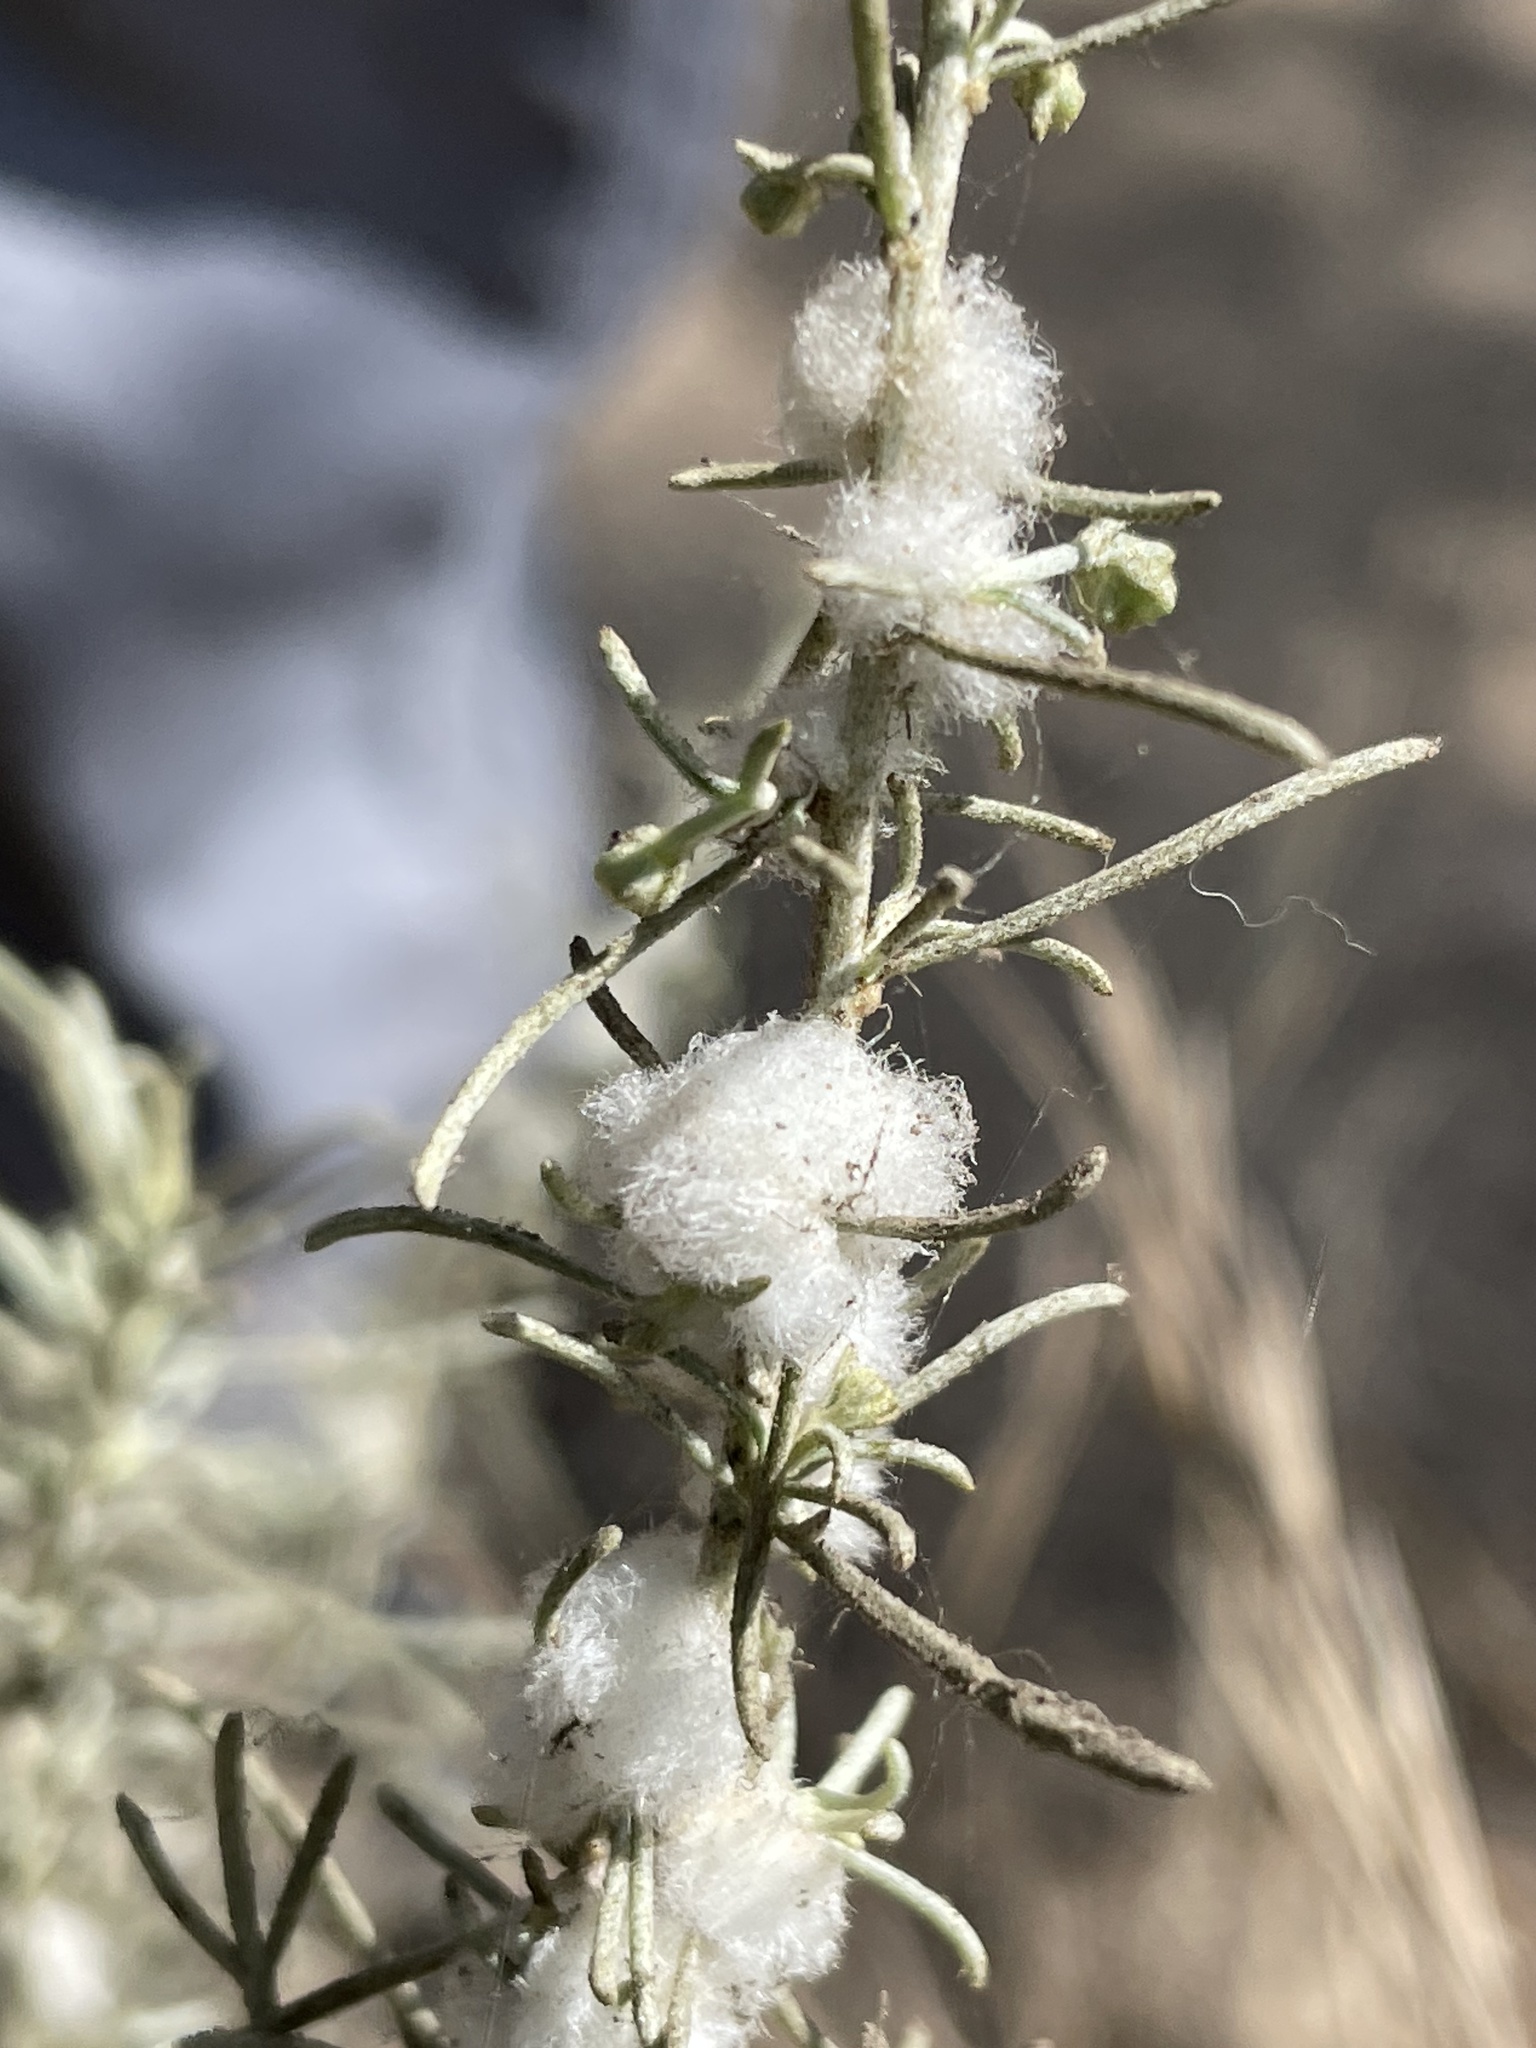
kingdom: Animalia
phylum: Arthropoda
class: Insecta
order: Diptera
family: Cecidomyiidae
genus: Rhopalomyia
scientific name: Rhopalomyia floccosa
